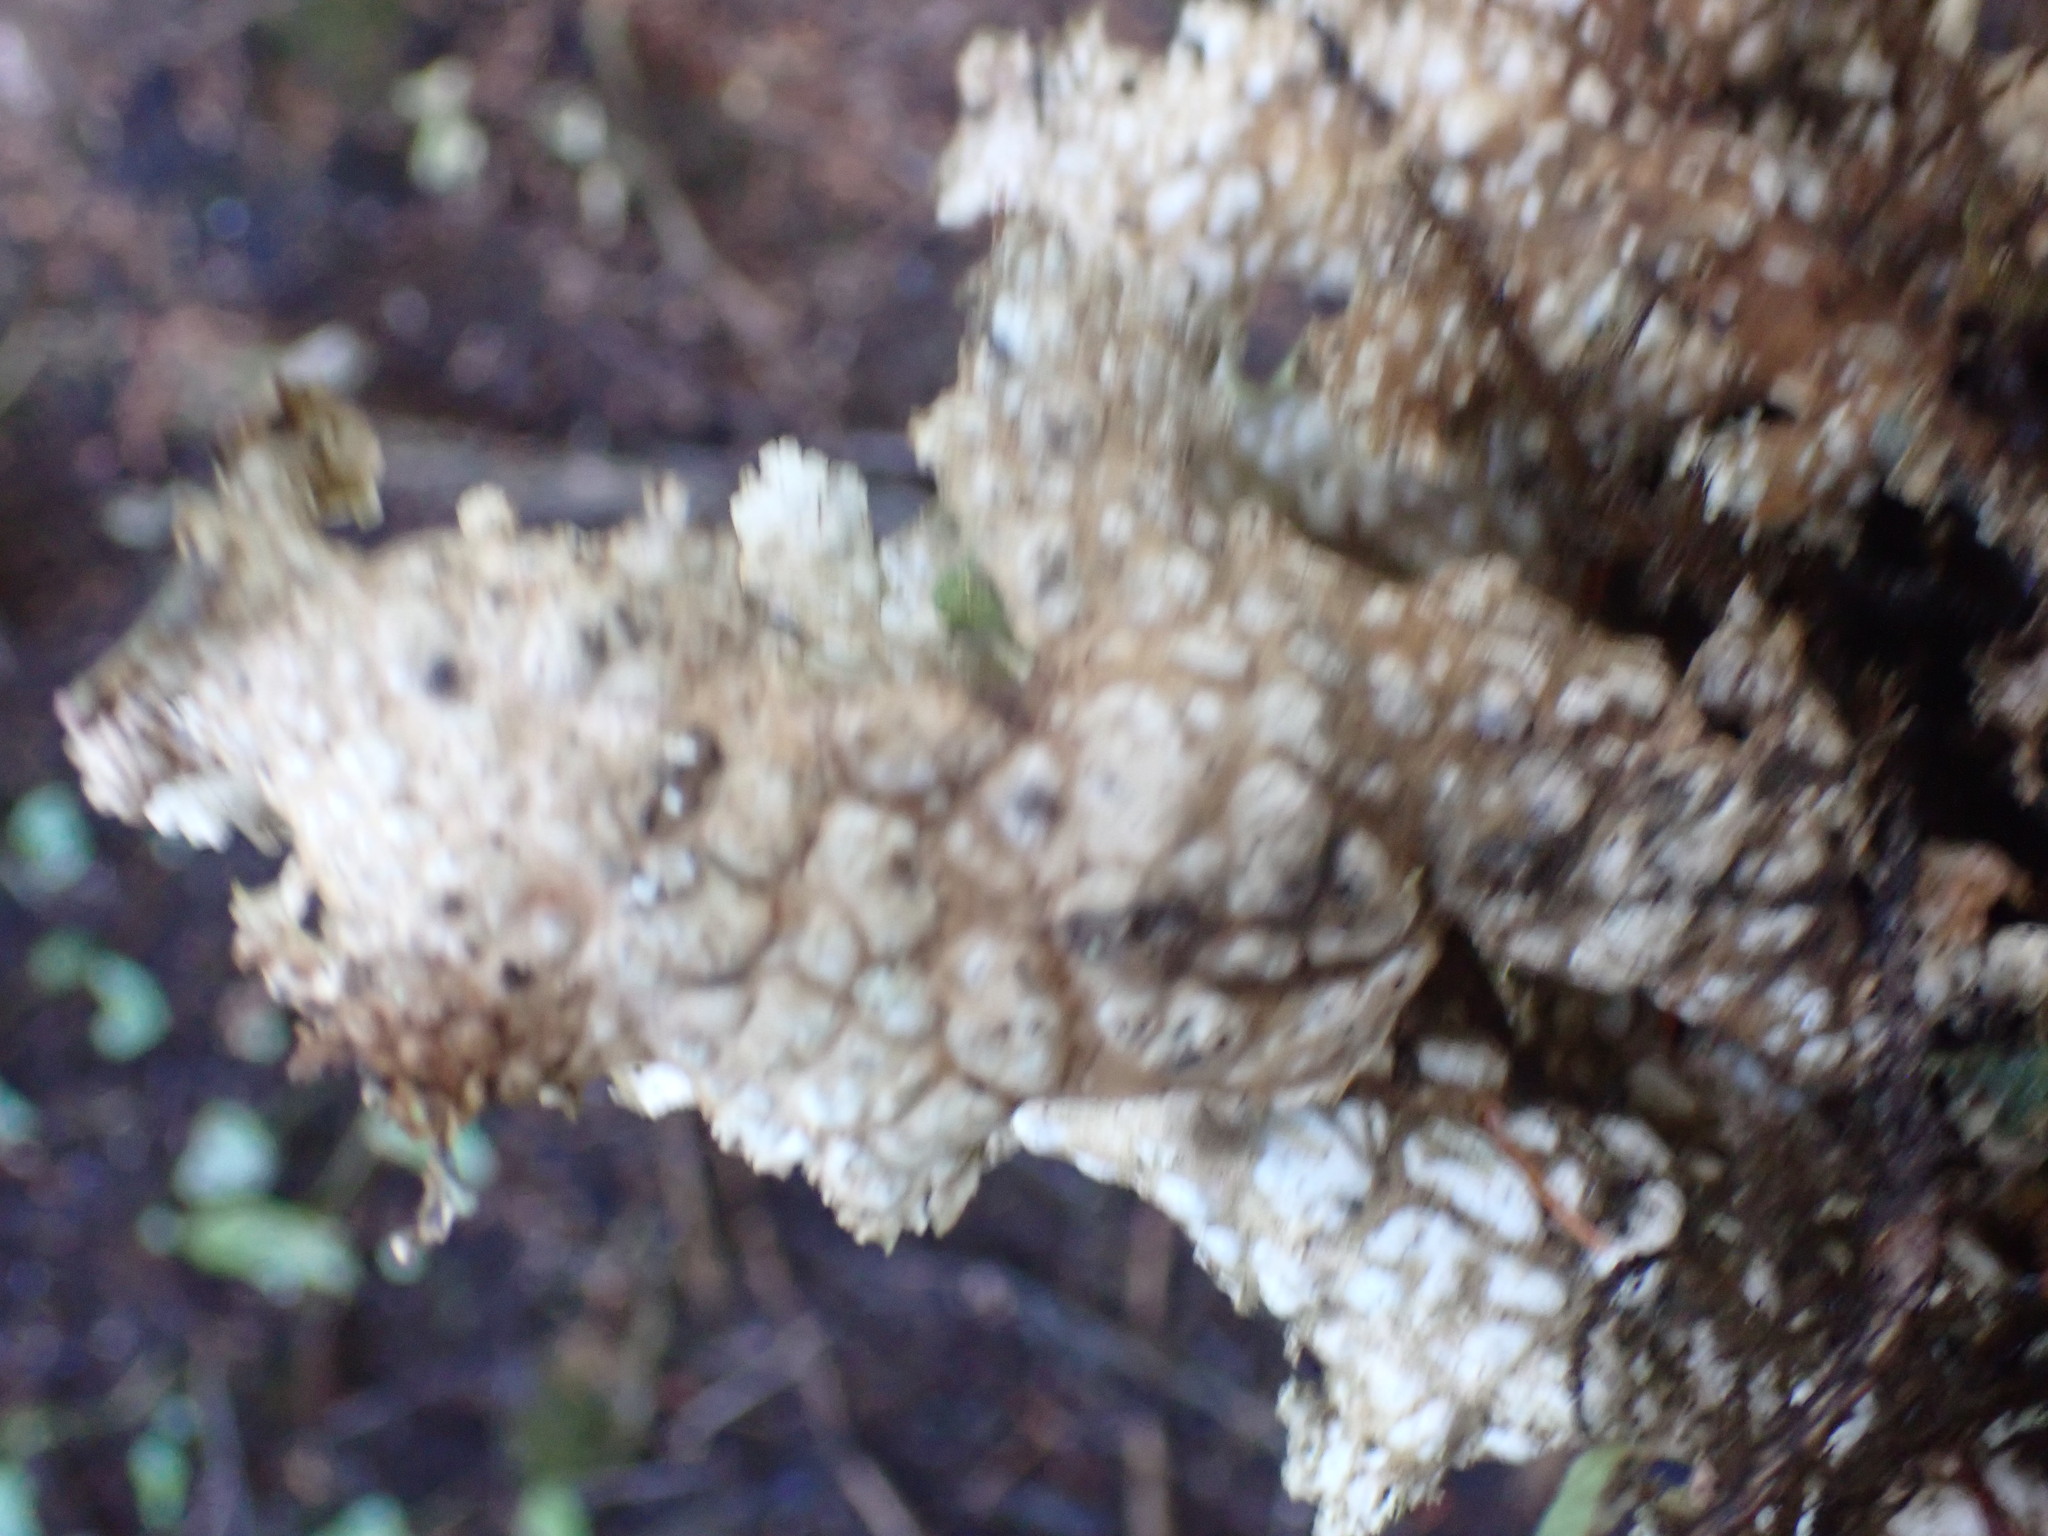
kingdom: Fungi
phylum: Ascomycota
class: Lecanoromycetes
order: Peltigerales
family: Lobariaceae
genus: Lobaria
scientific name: Lobaria oregana
